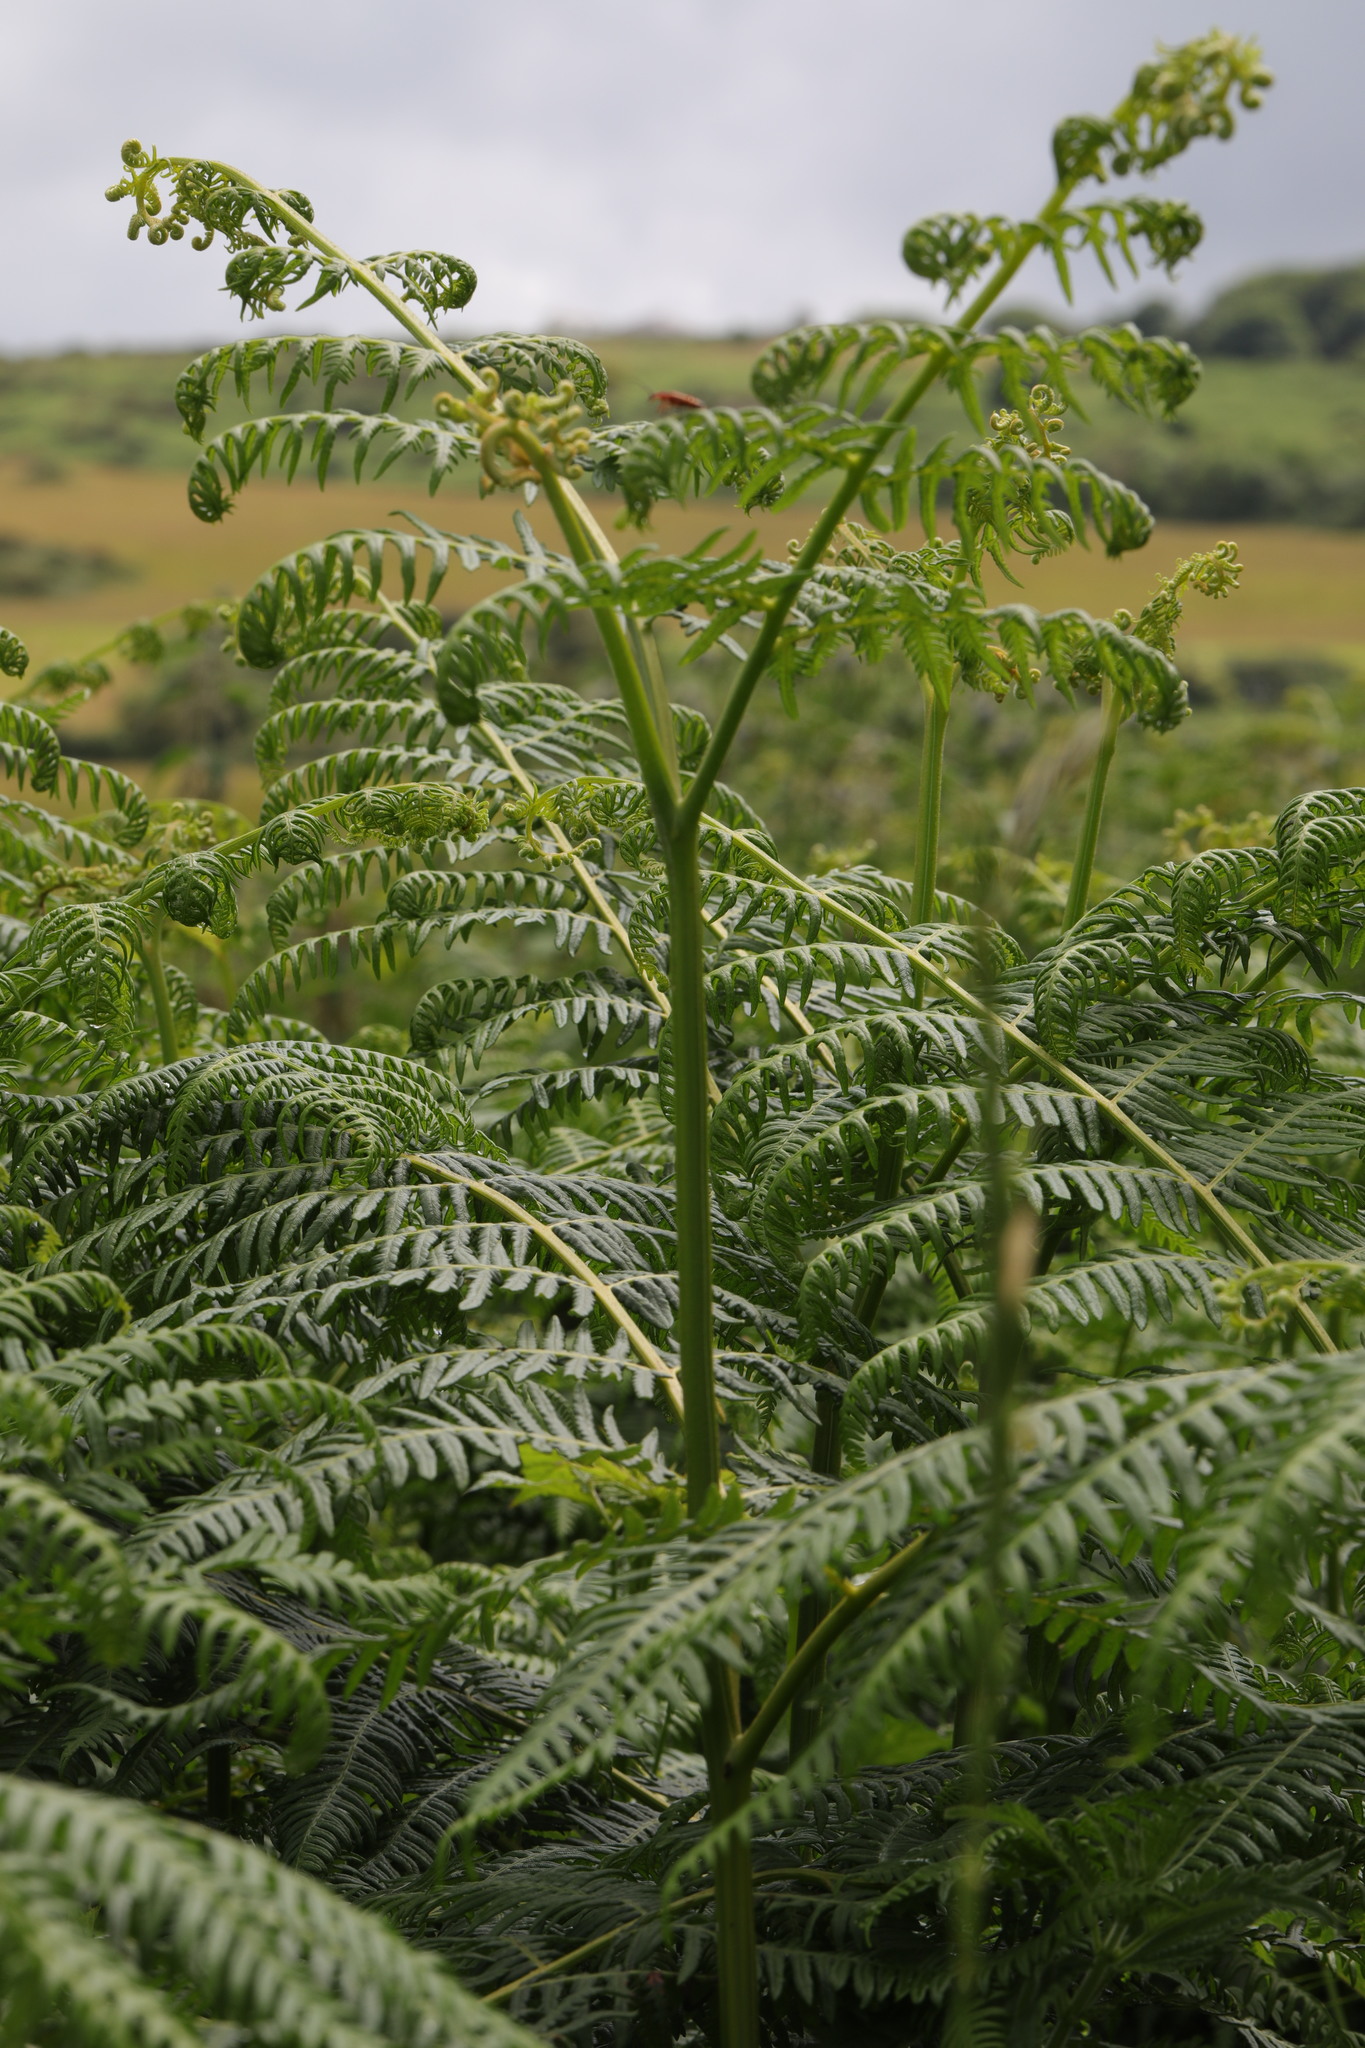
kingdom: Plantae
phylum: Tracheophyta
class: Polypodiopsida
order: Polypodiales
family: Dennstaedtiaceae
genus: Pteridium
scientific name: Pteridium aquilinum
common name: Bracken
